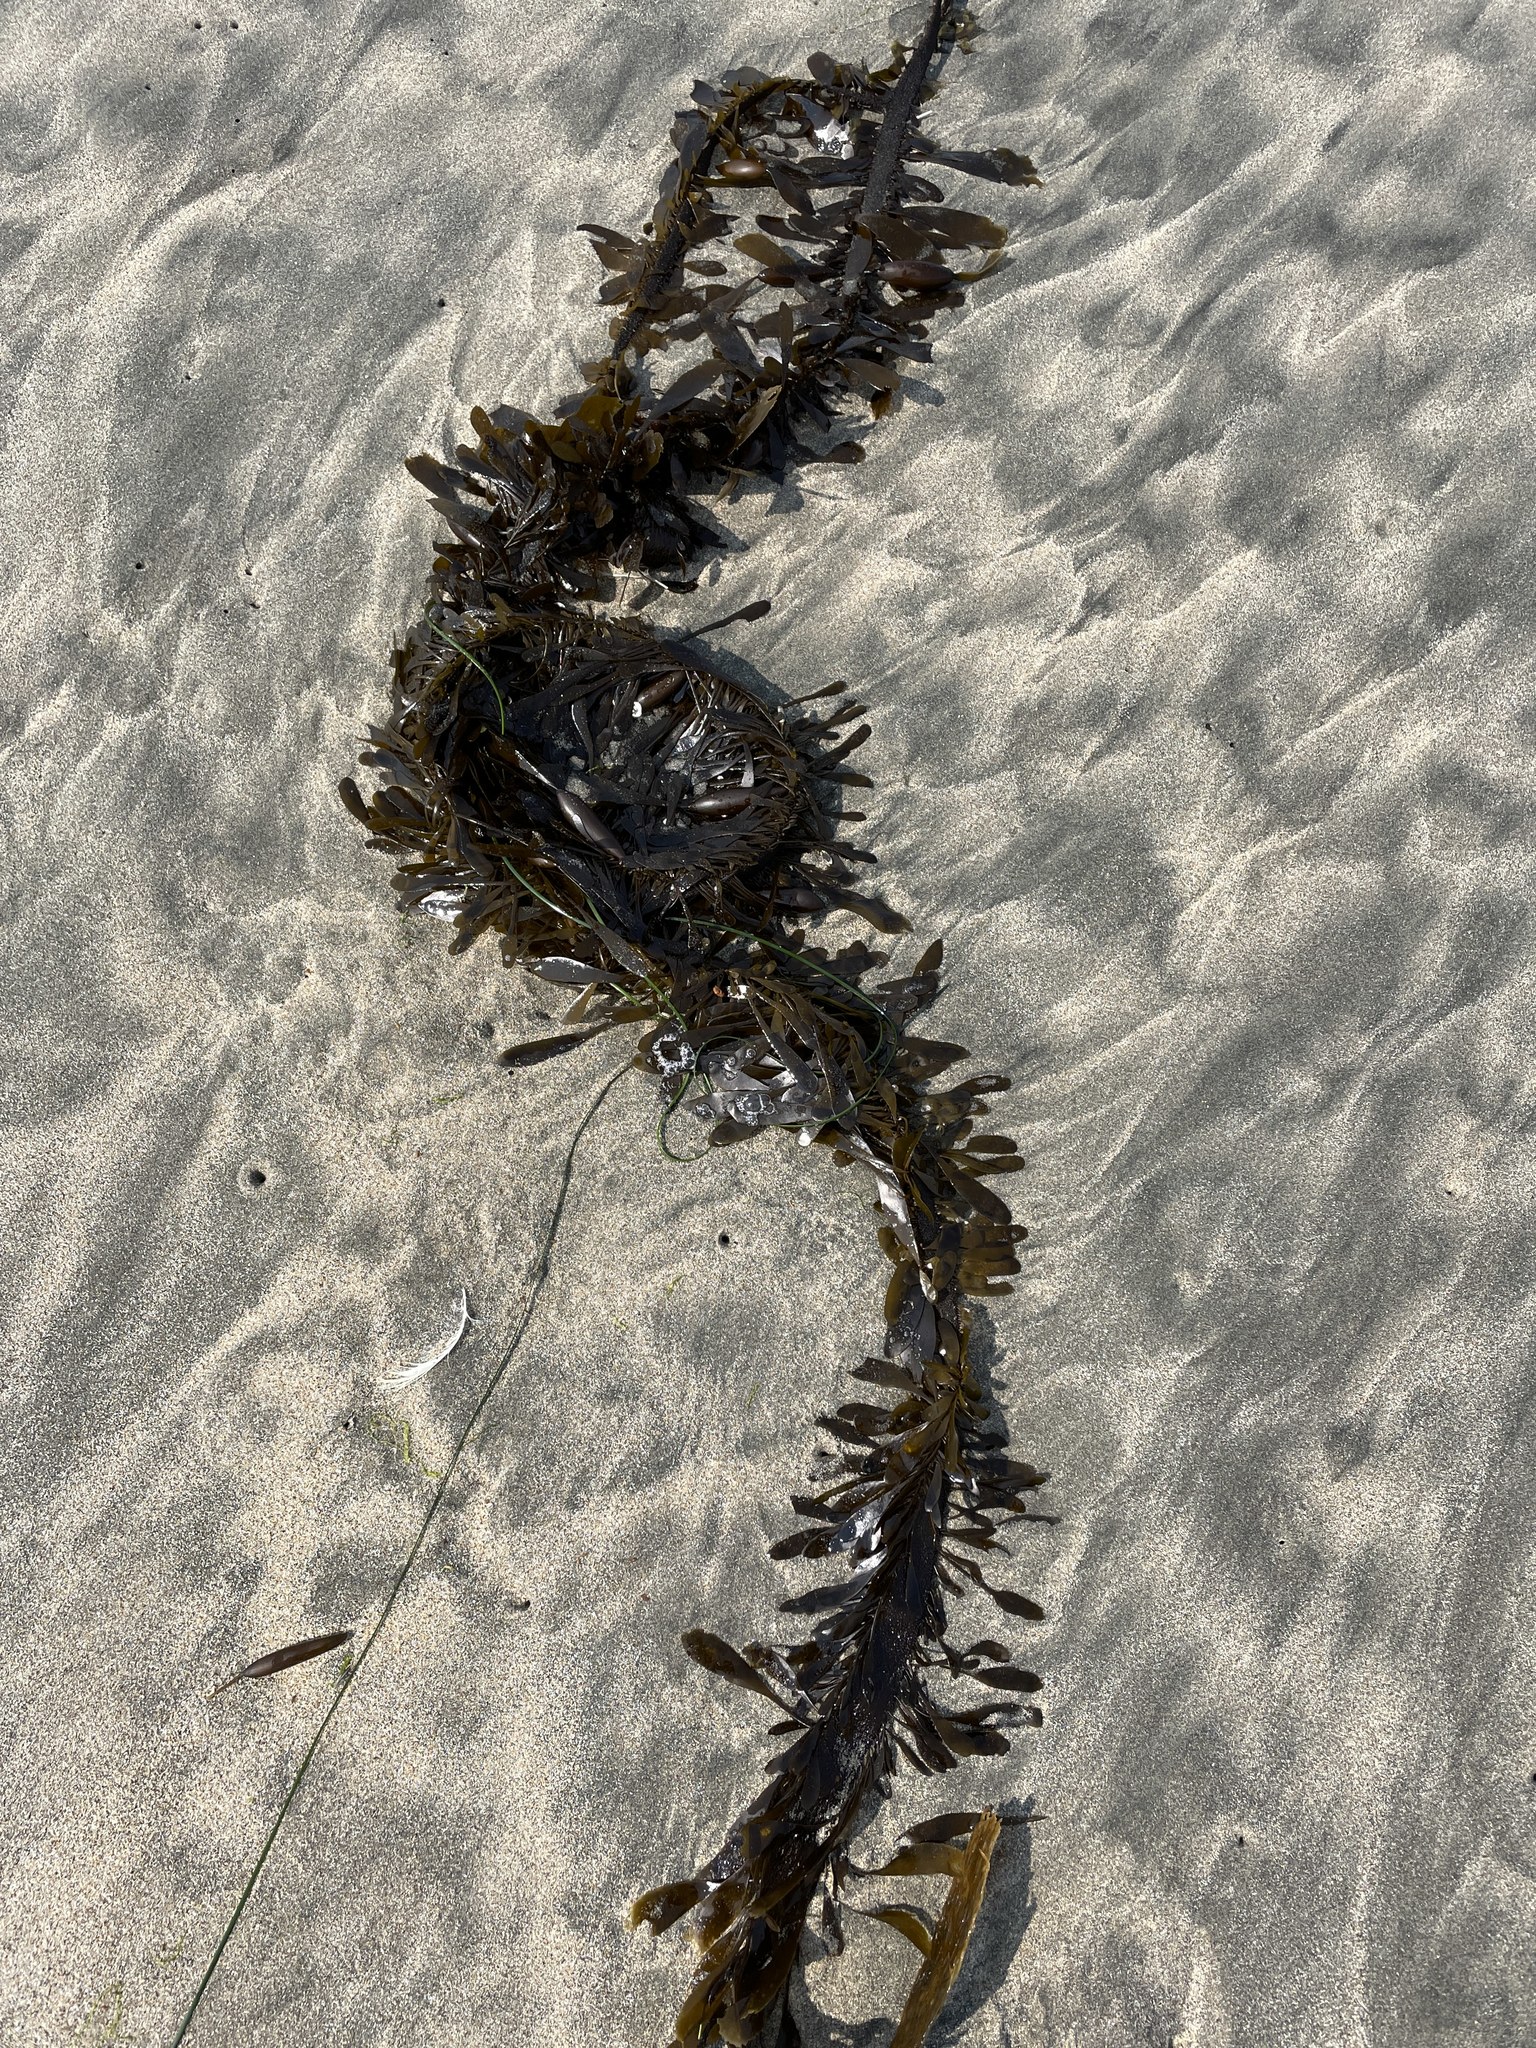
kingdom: Chromista
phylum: Ochrophyta
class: Phaeophyceae
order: Laminariales
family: Lessoniaceae
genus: Egregia
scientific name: Egregia menziesii
